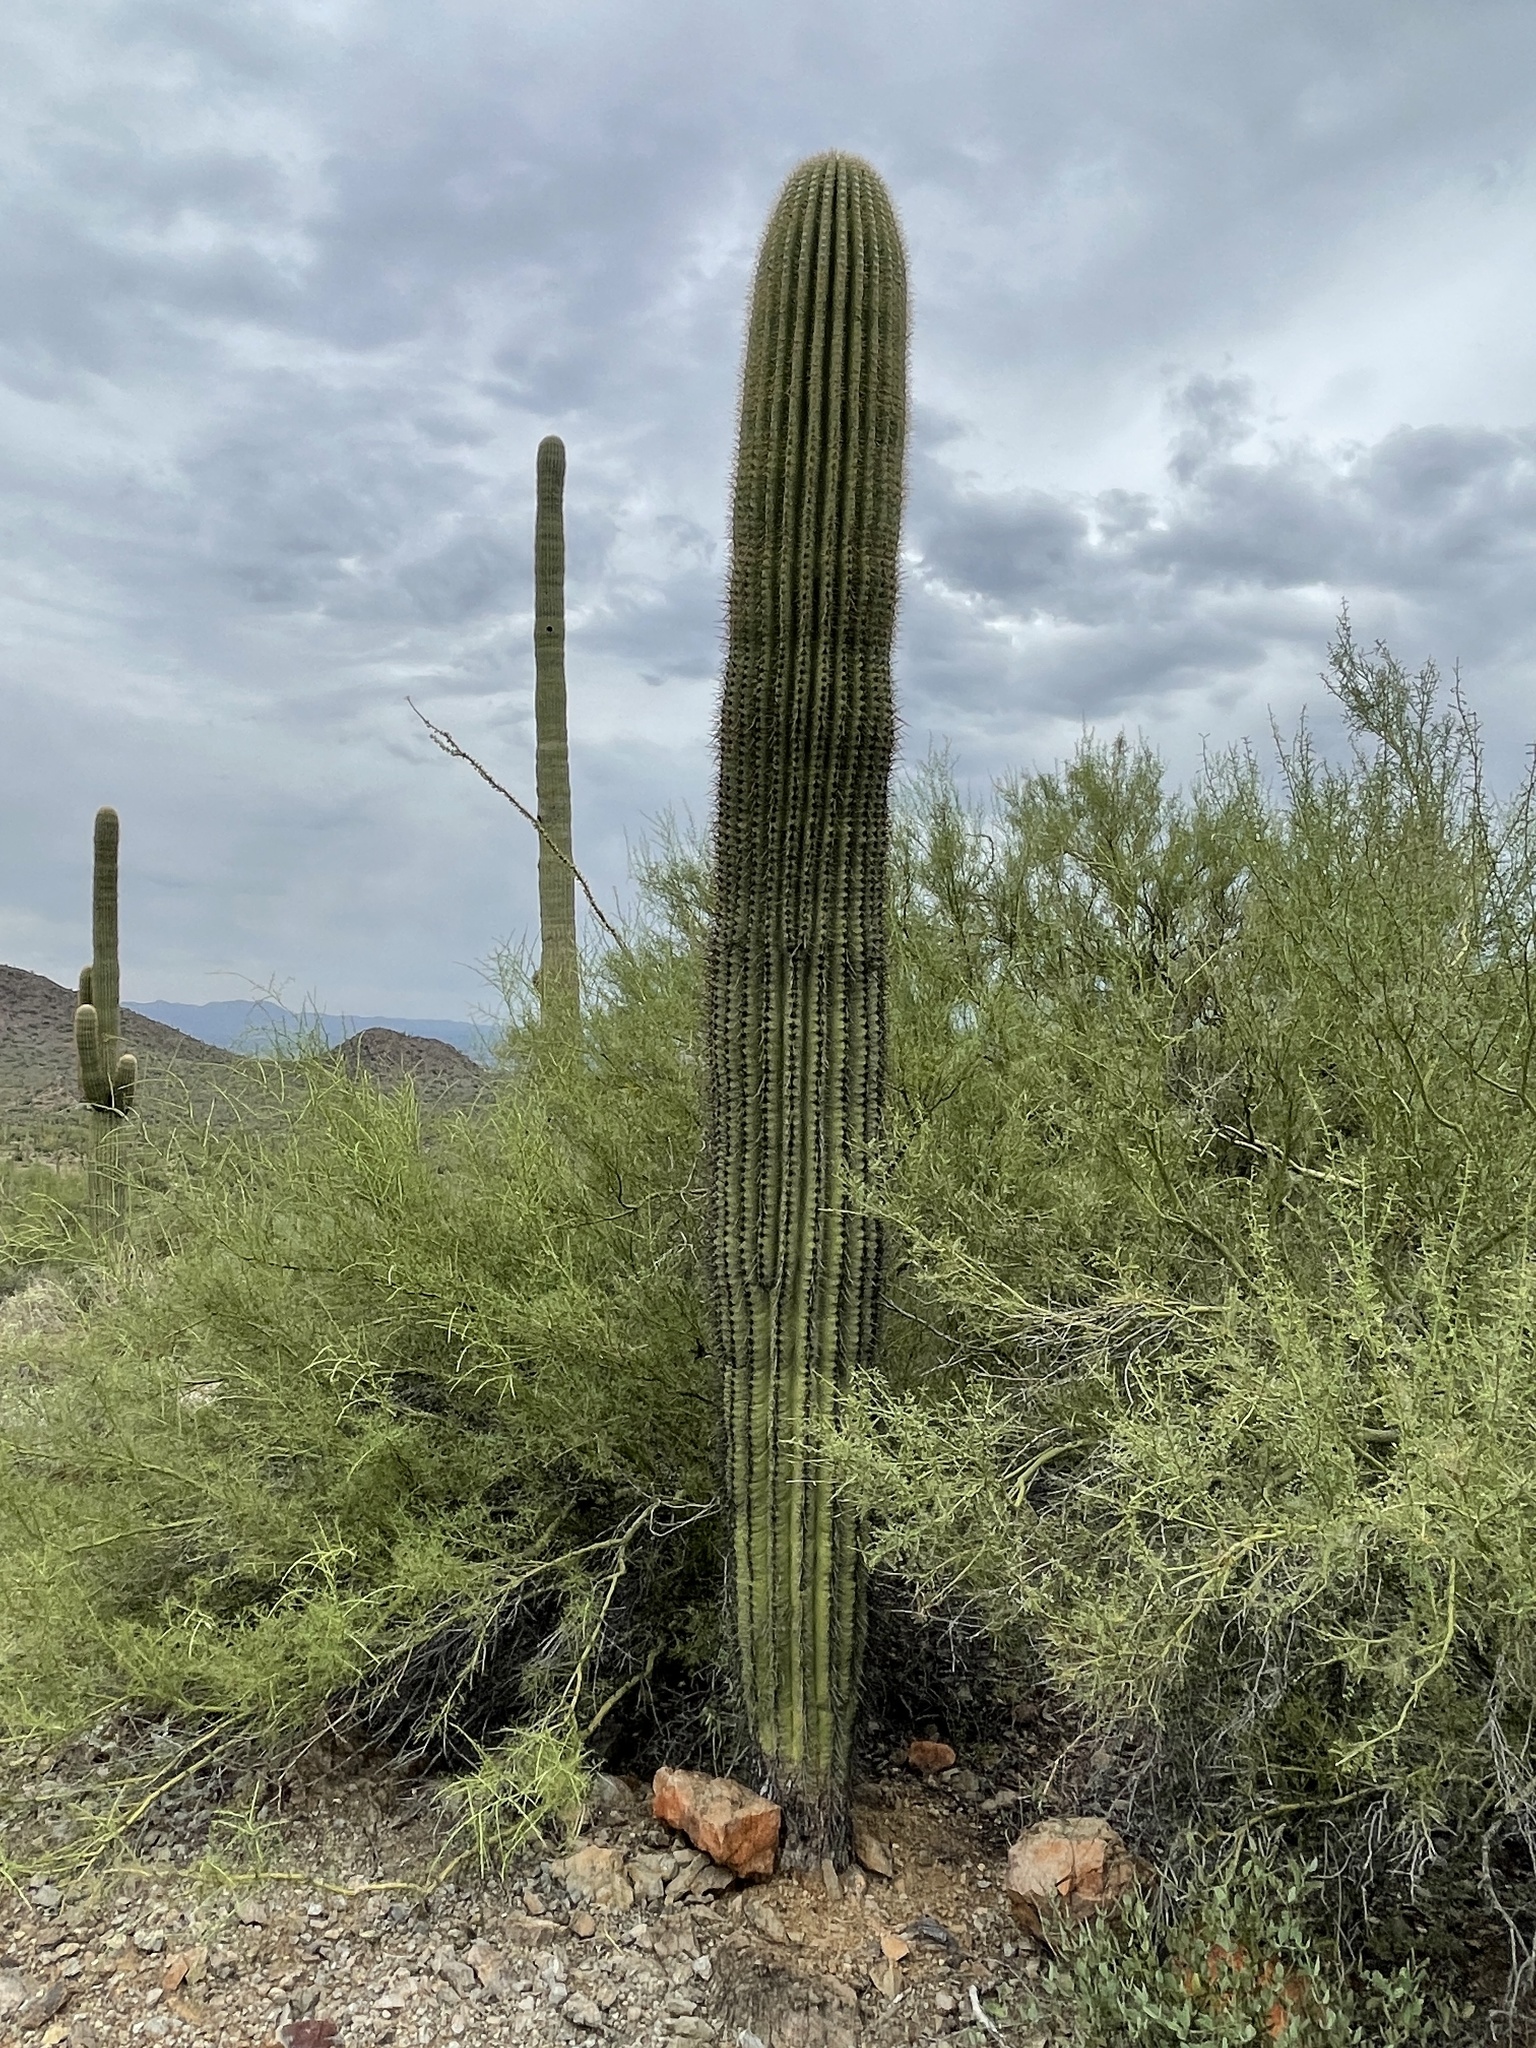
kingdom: Plantae
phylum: Tracheophyta
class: Magnoliopsida
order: Caryophyllales
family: Cactaceae
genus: Carnegiea
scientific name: Carnegiea gigantea
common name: Saguaro
